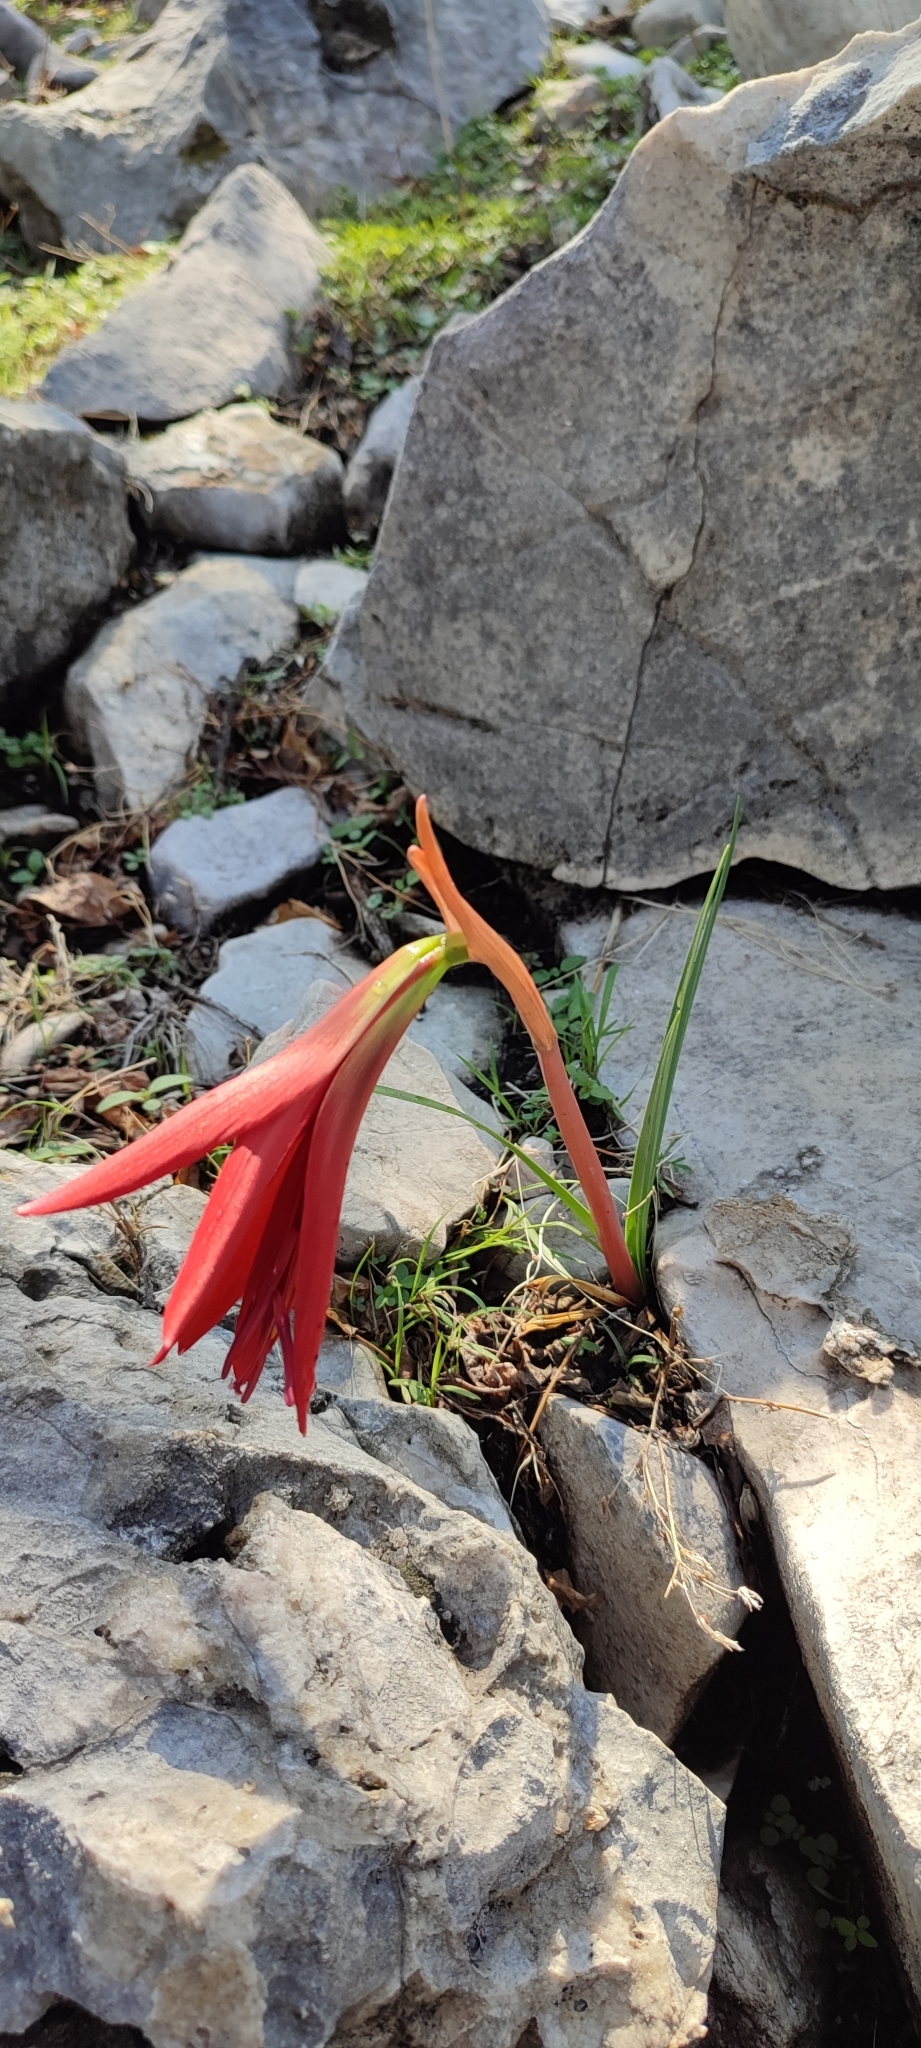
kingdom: Plantae
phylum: Tracheophyta
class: Liliopsida
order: Asparagales
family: Amaryllidaceae
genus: Sprekelia
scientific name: Sprekelia formosissima
